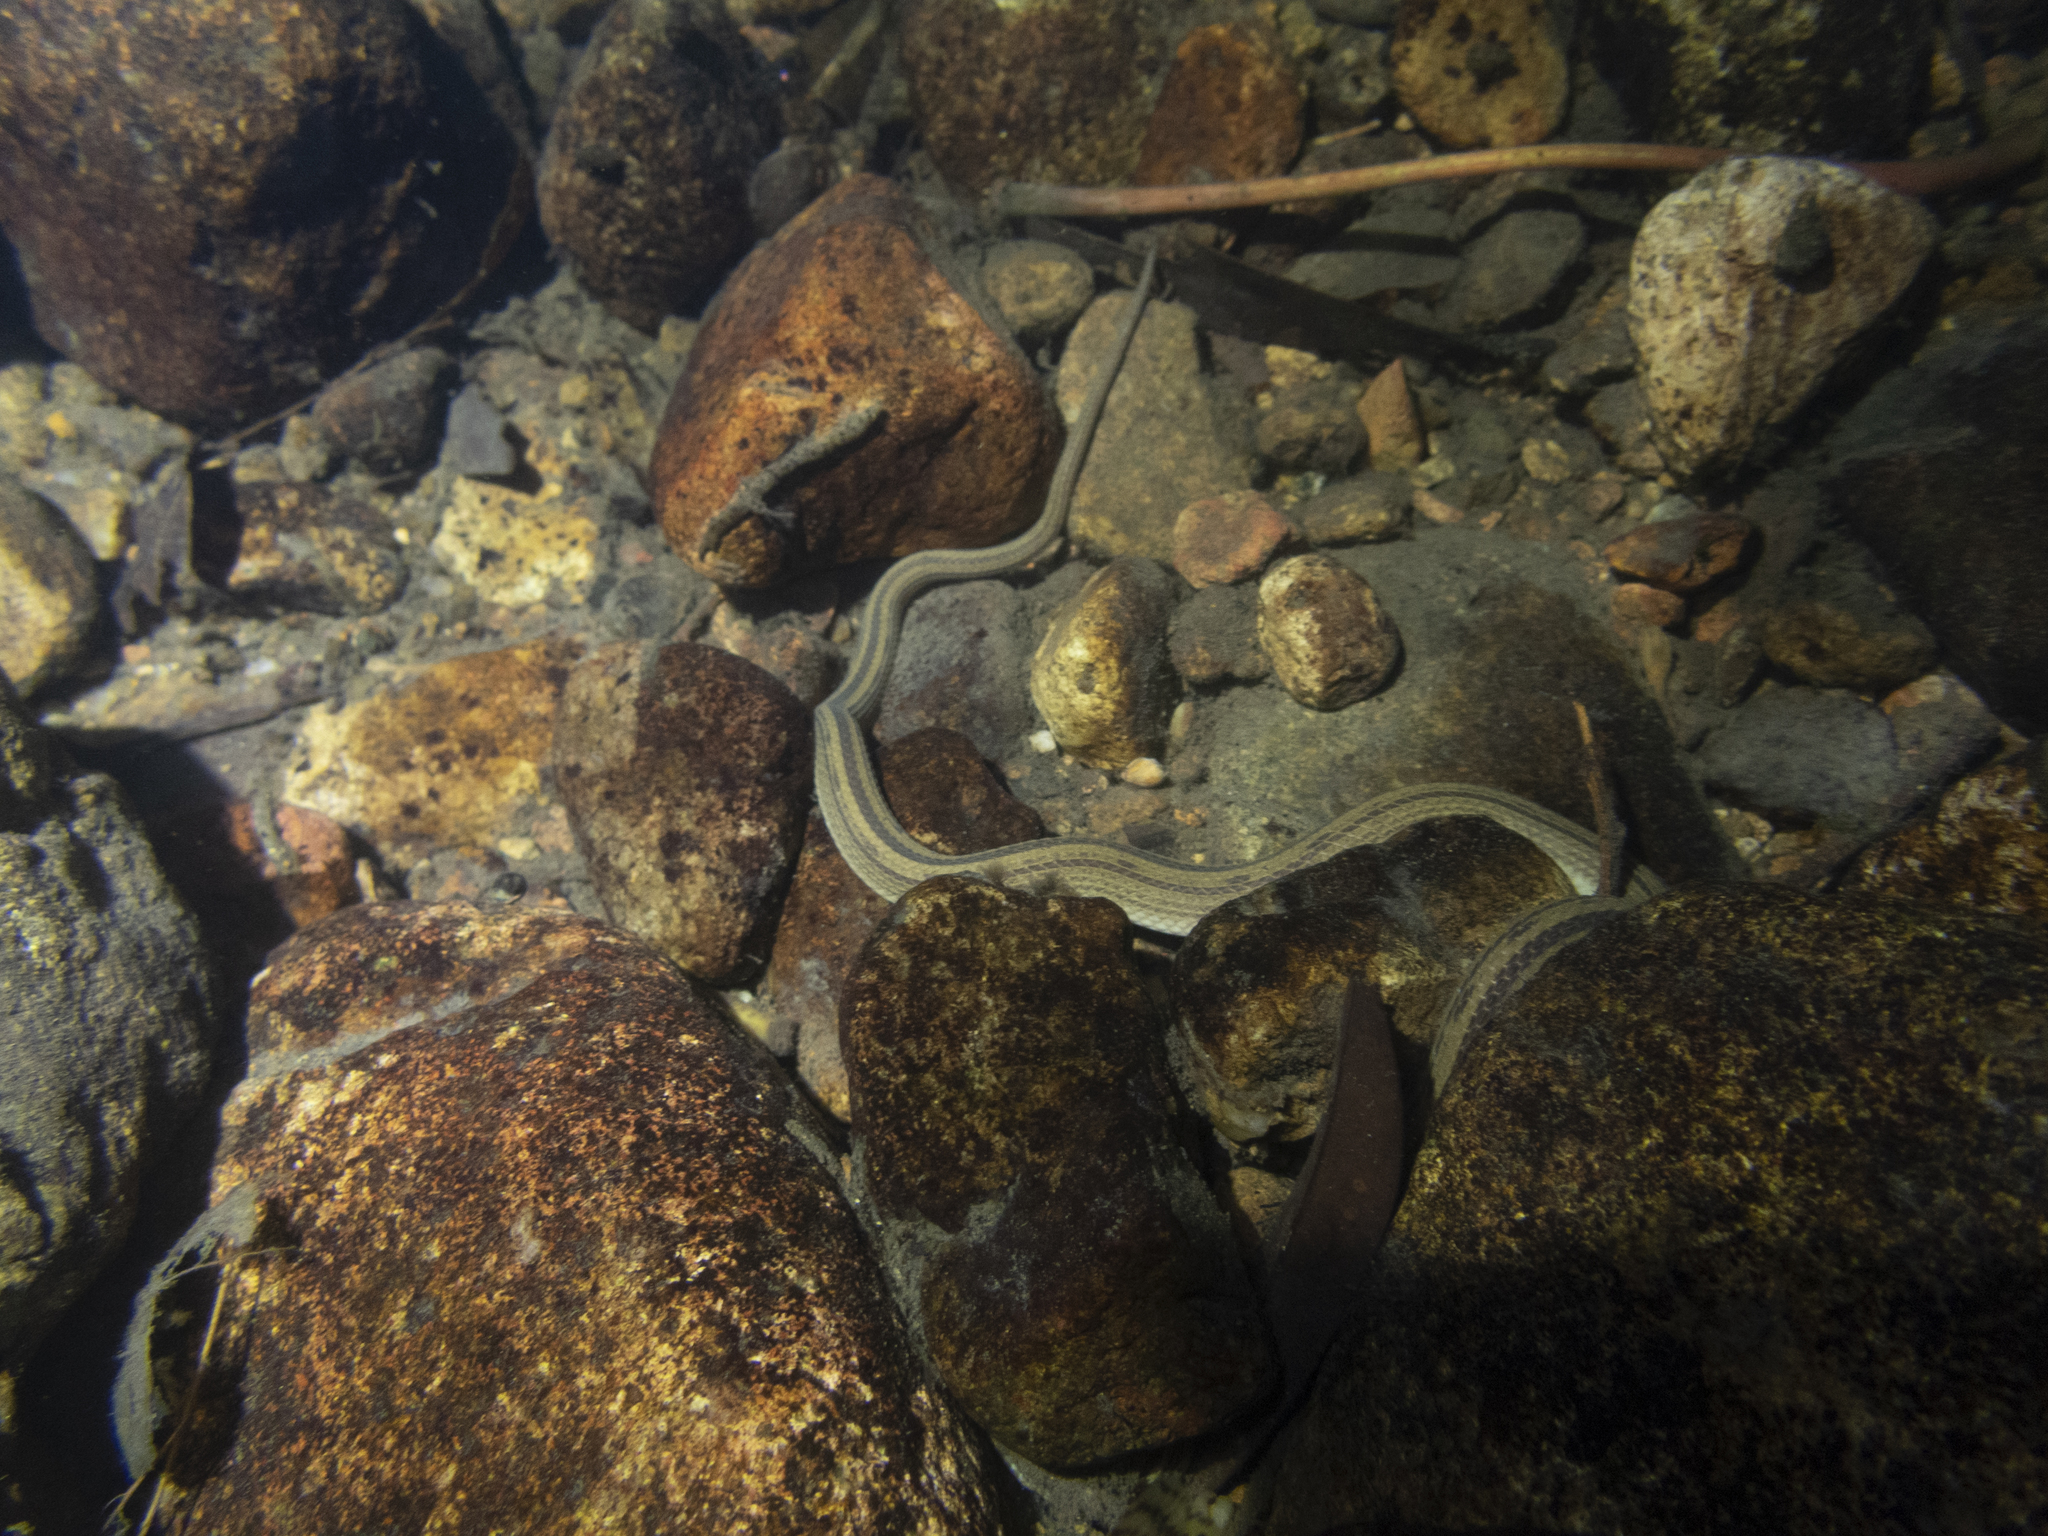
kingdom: Animalia
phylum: Chordata
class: Squamata
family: Colubridae
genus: Opisthotropis
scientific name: Opisthotropis kuatunensis
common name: Chinese mountain keelback
